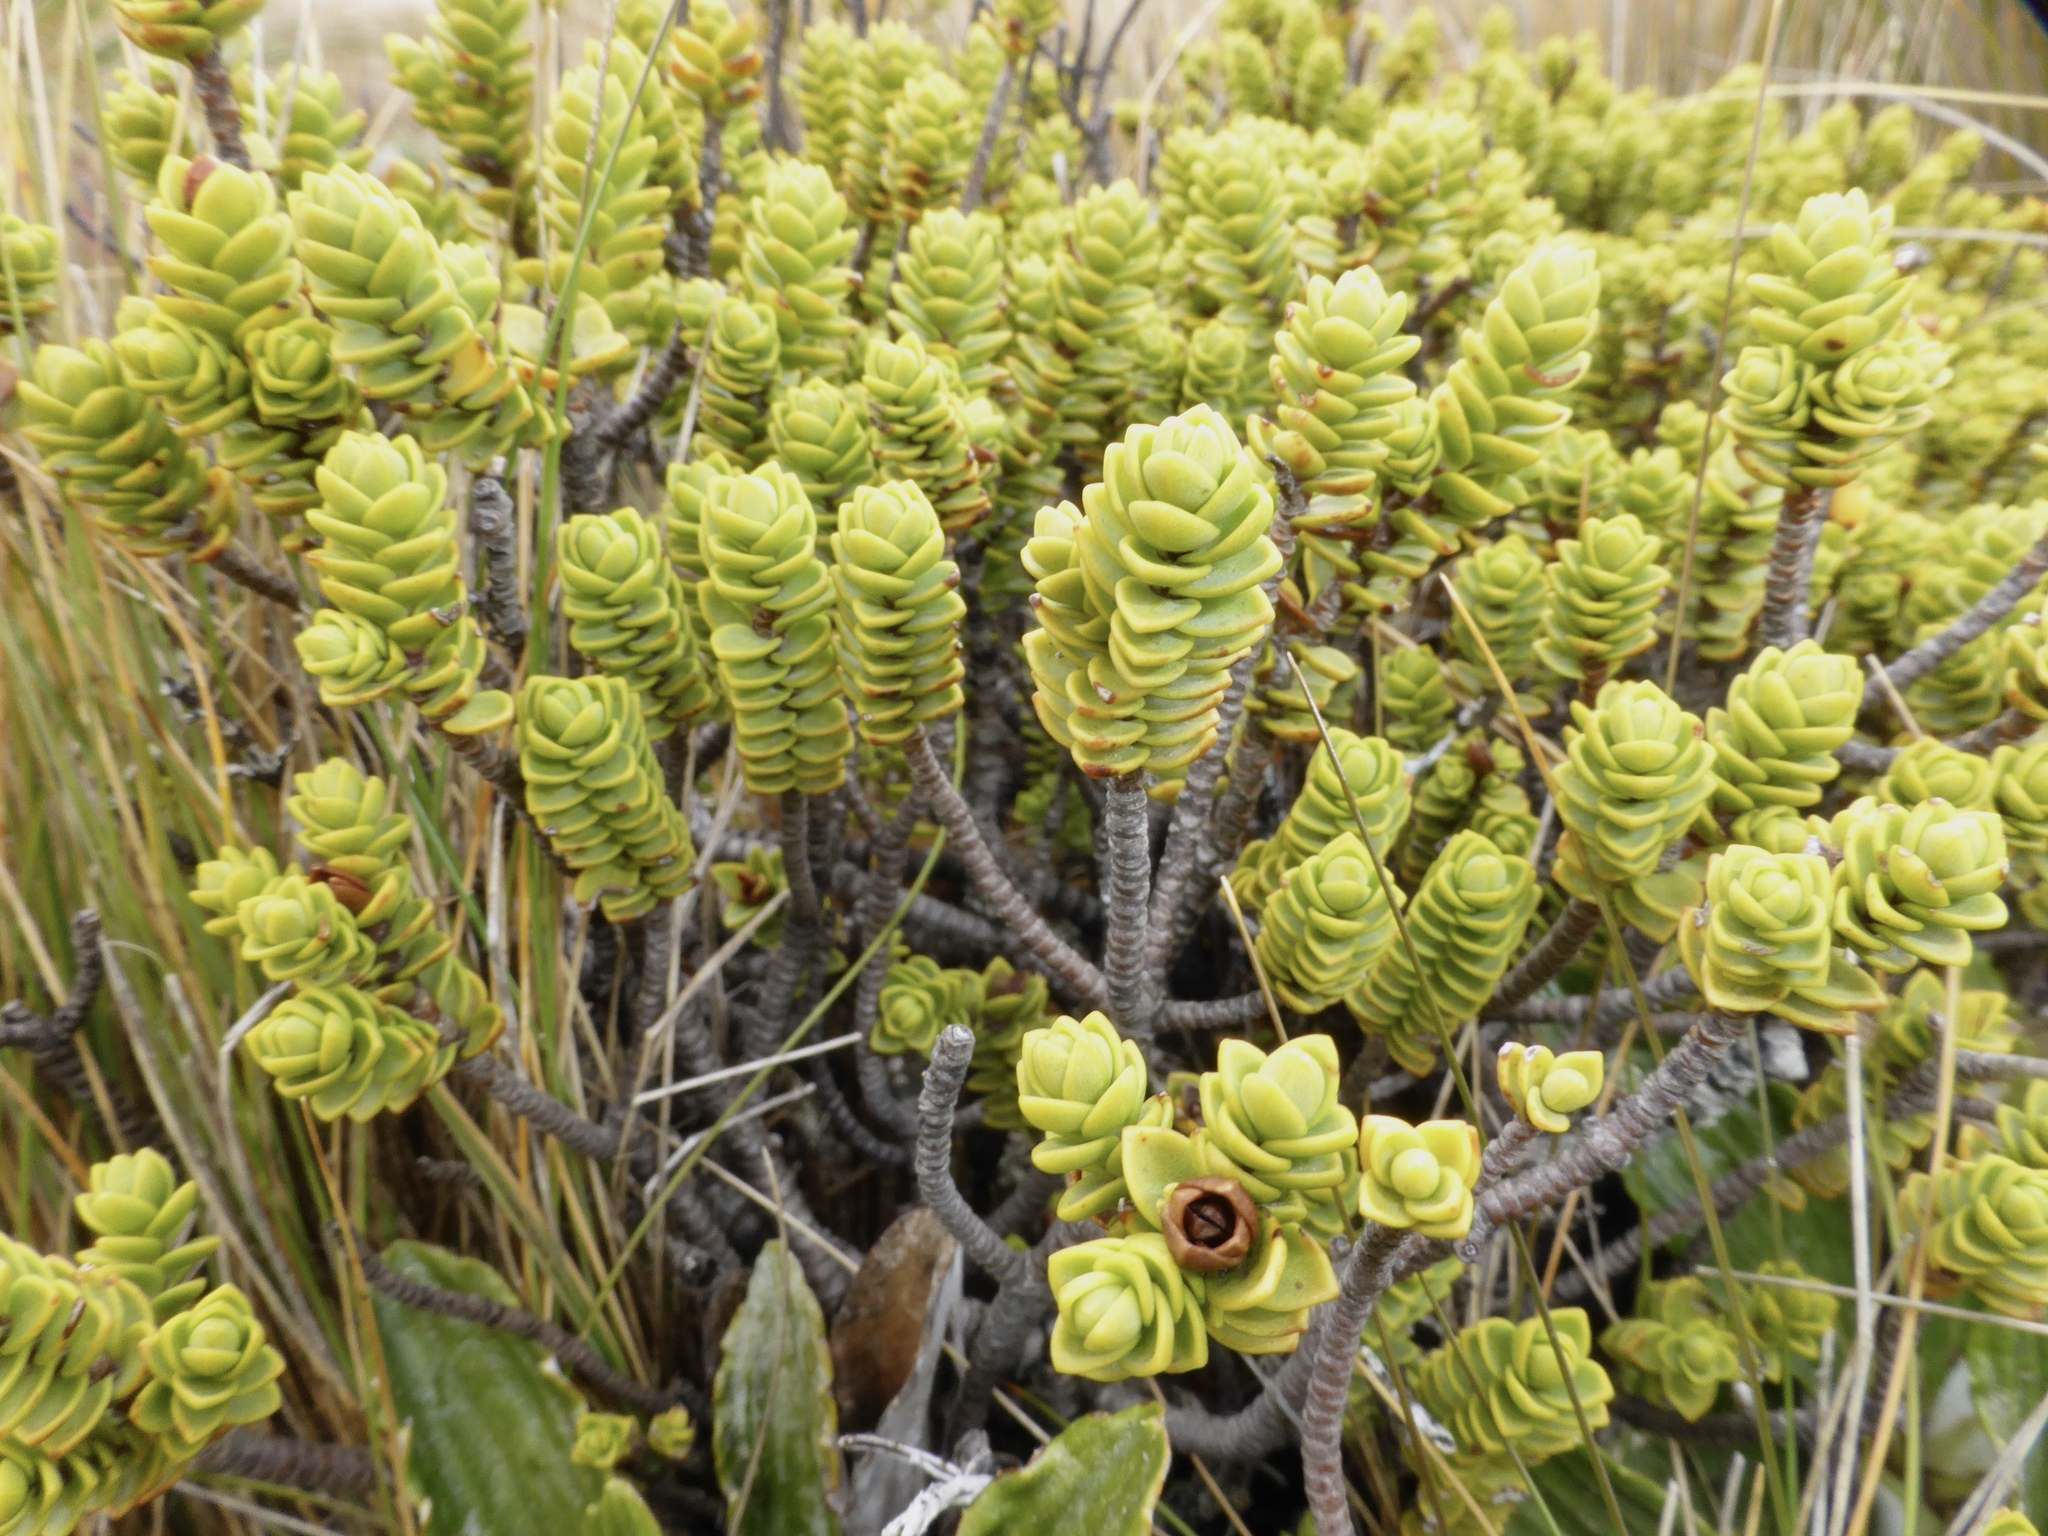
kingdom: Plantae
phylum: Tracheophyta
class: Magnoliopsida
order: Lamiales
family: Plantaginaceae
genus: Veronica
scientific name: Veronica buchananii
